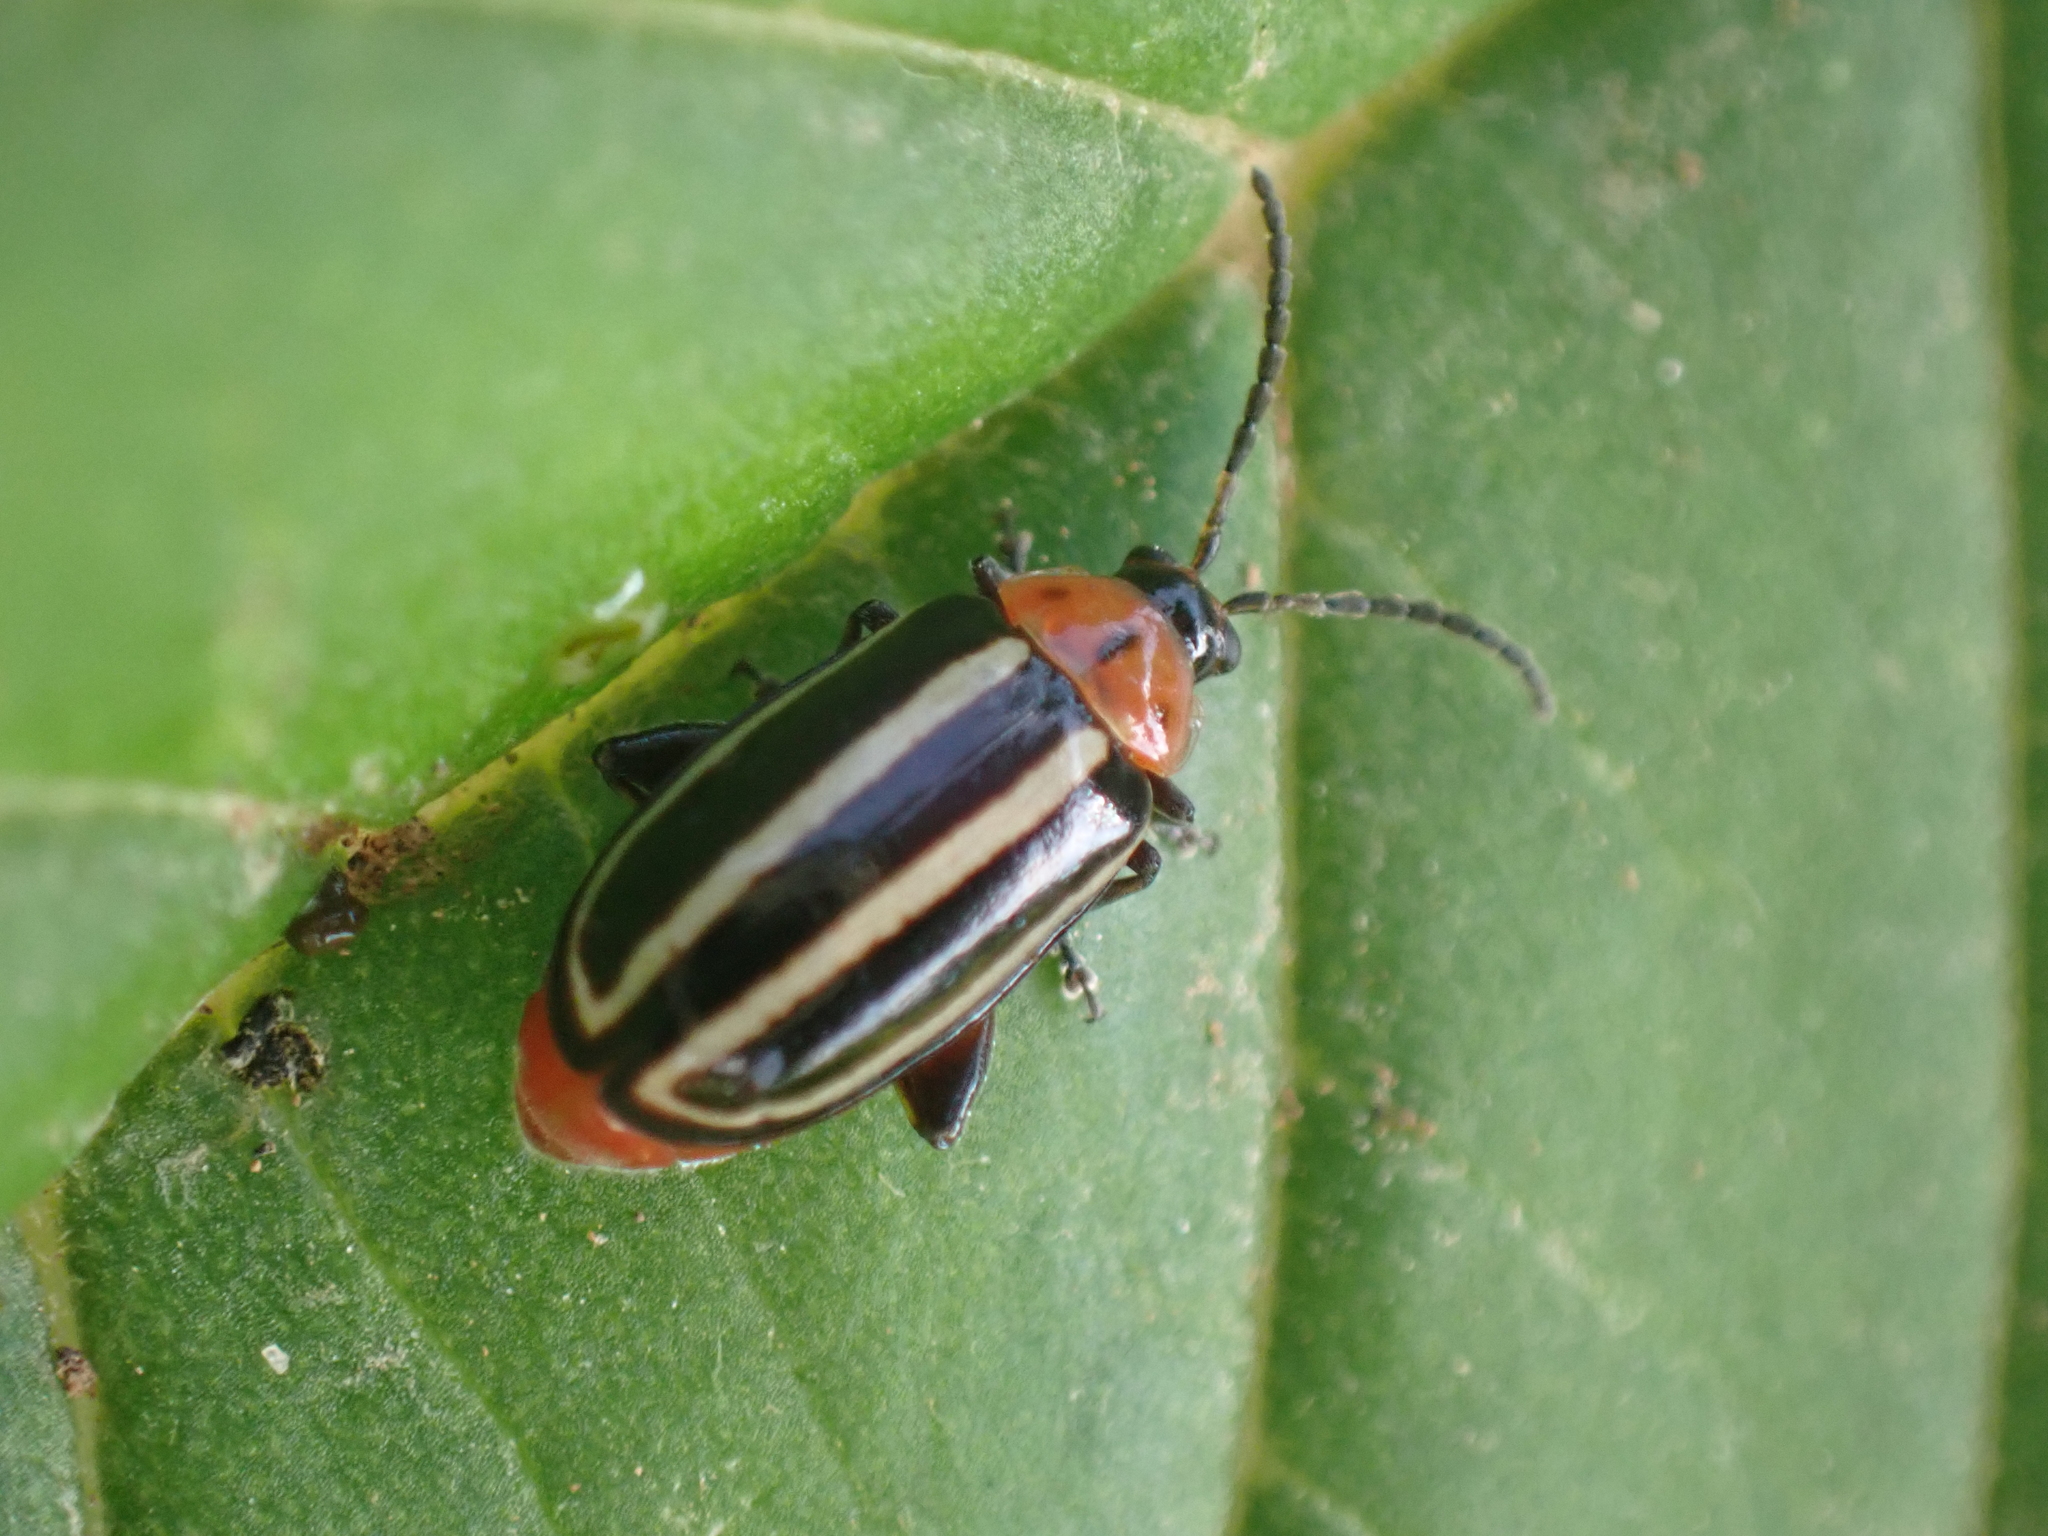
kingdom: Animalia
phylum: Arthropoda
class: Insecta
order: Coleoptera
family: Chrysomelidae
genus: Disonycha
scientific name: Disonycha glabrata
